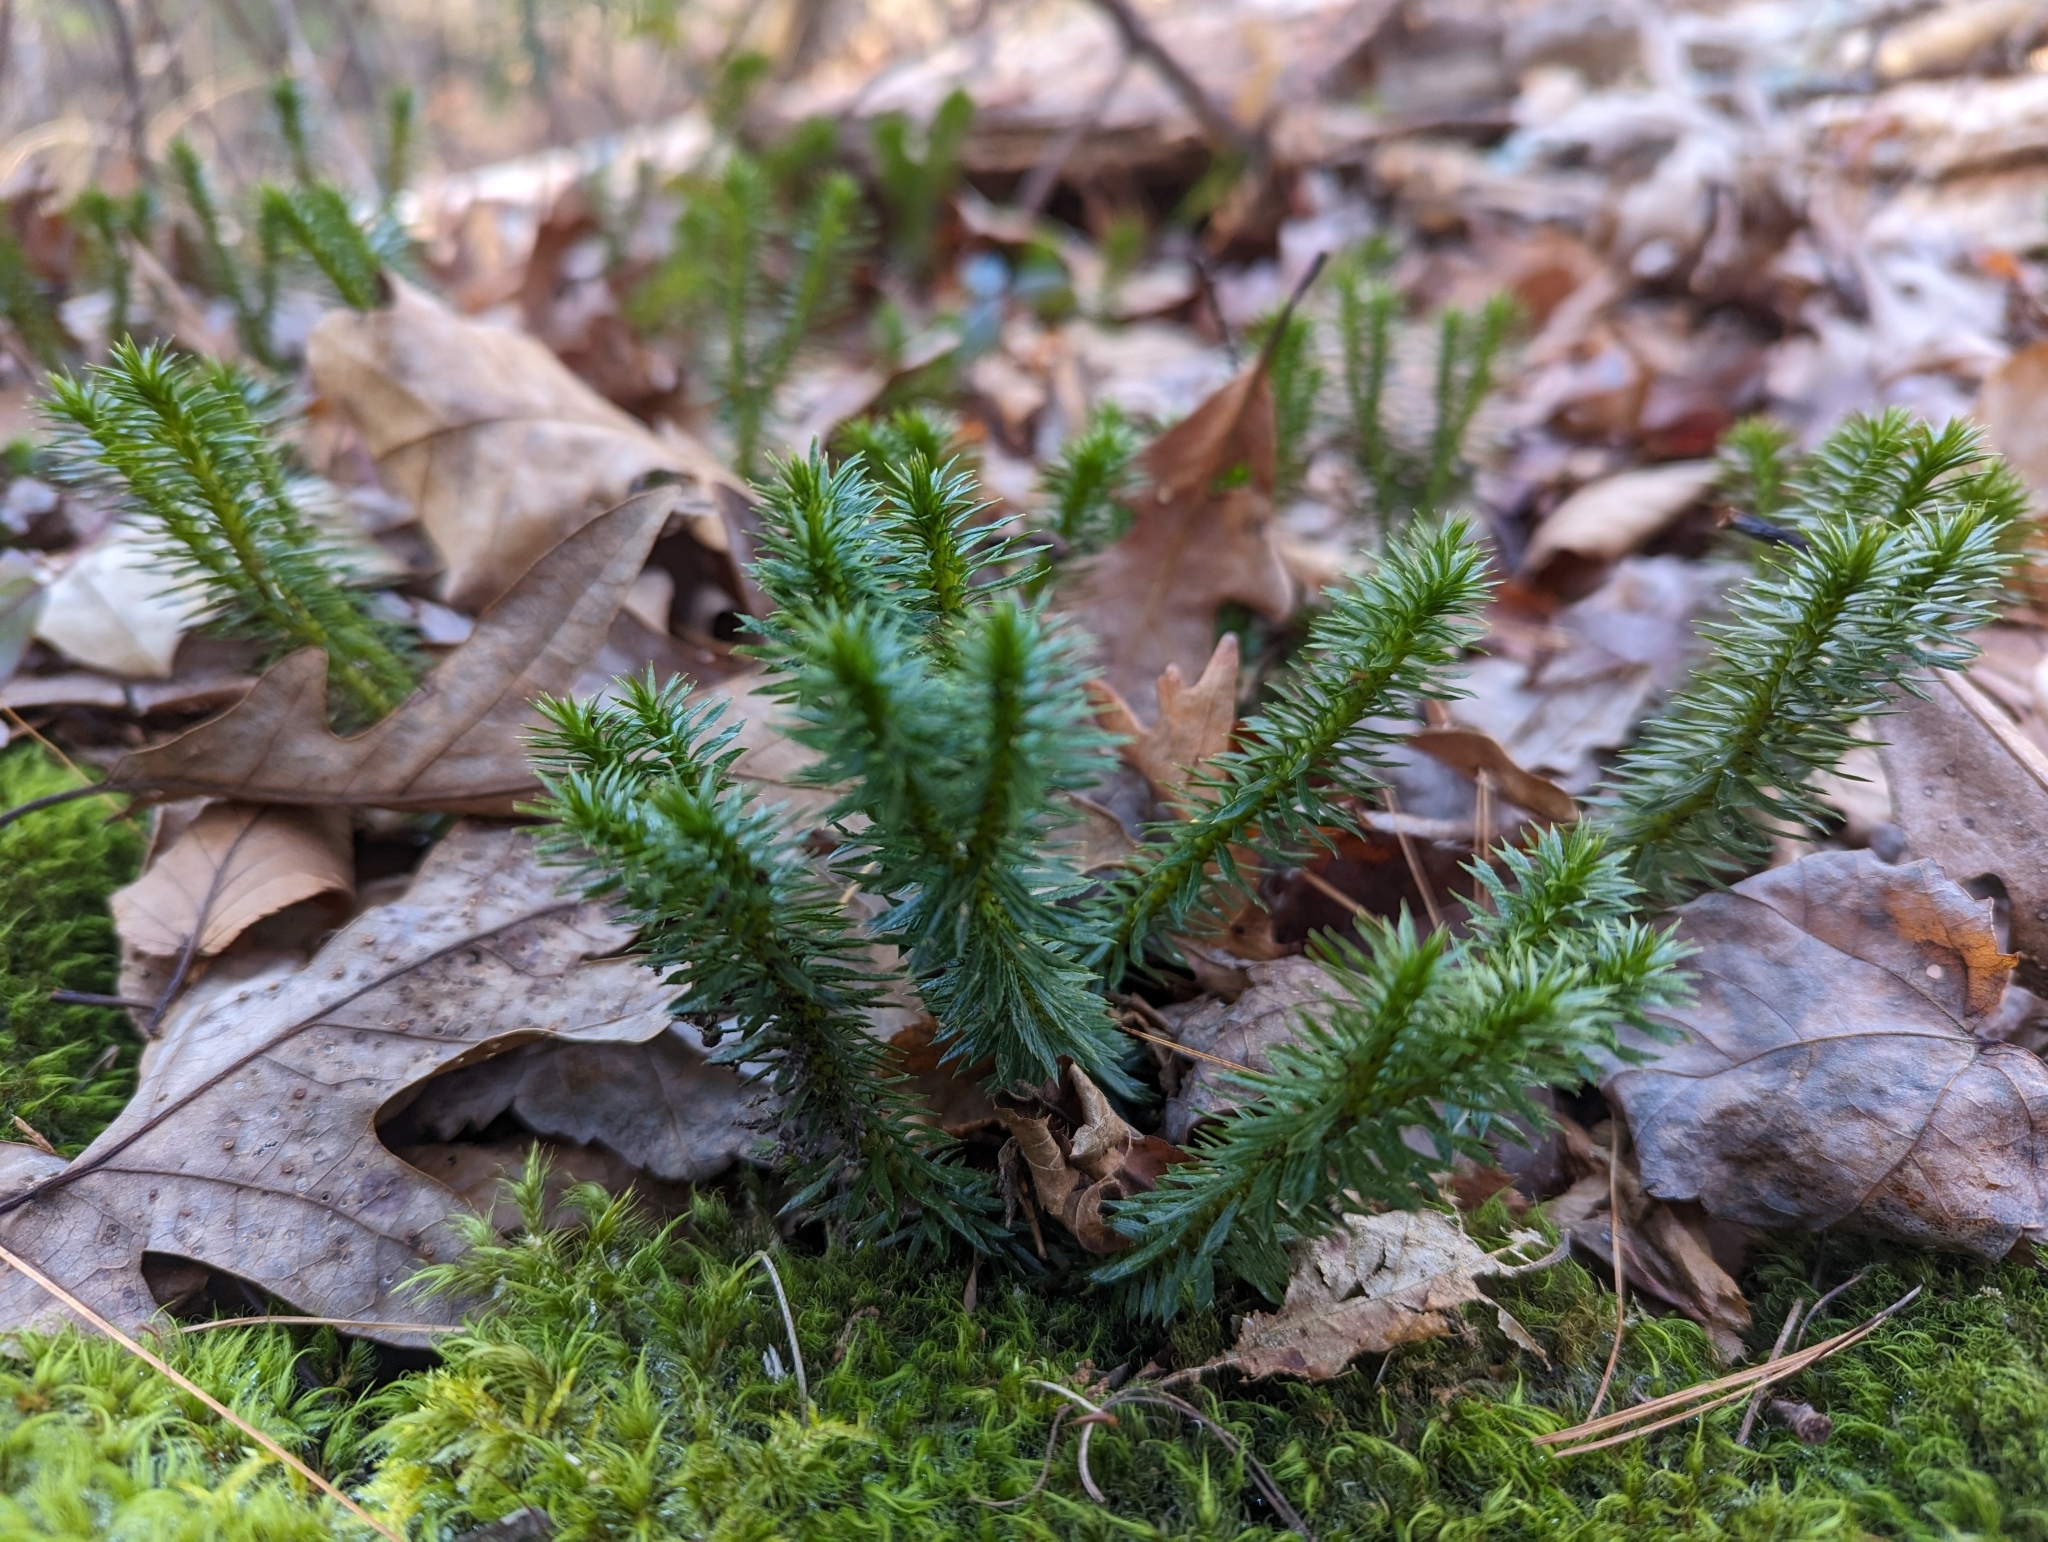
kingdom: Plantae
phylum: Tracheophyta
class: Lycopodiopsida
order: Lycopodiales
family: Lycopodiaceae
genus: Huperzia
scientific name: Huperzia lucidula
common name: Shining clubmoss
